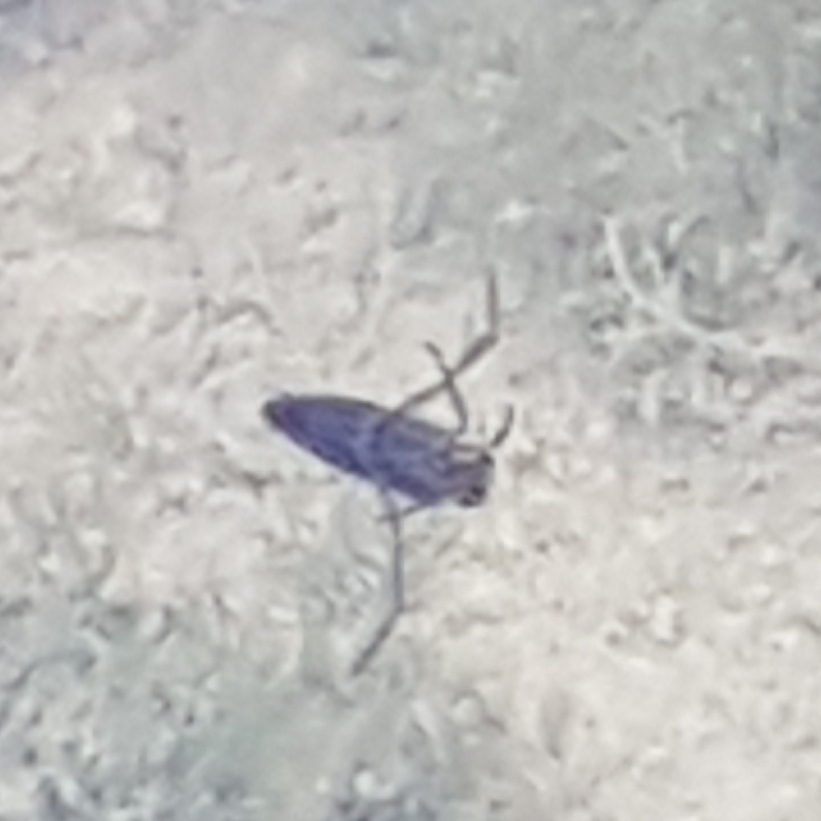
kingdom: Animalia
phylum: Arthropoda
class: Insecta
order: Hemiptera
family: Notonectidae
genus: Notonecta
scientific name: Notonecta
